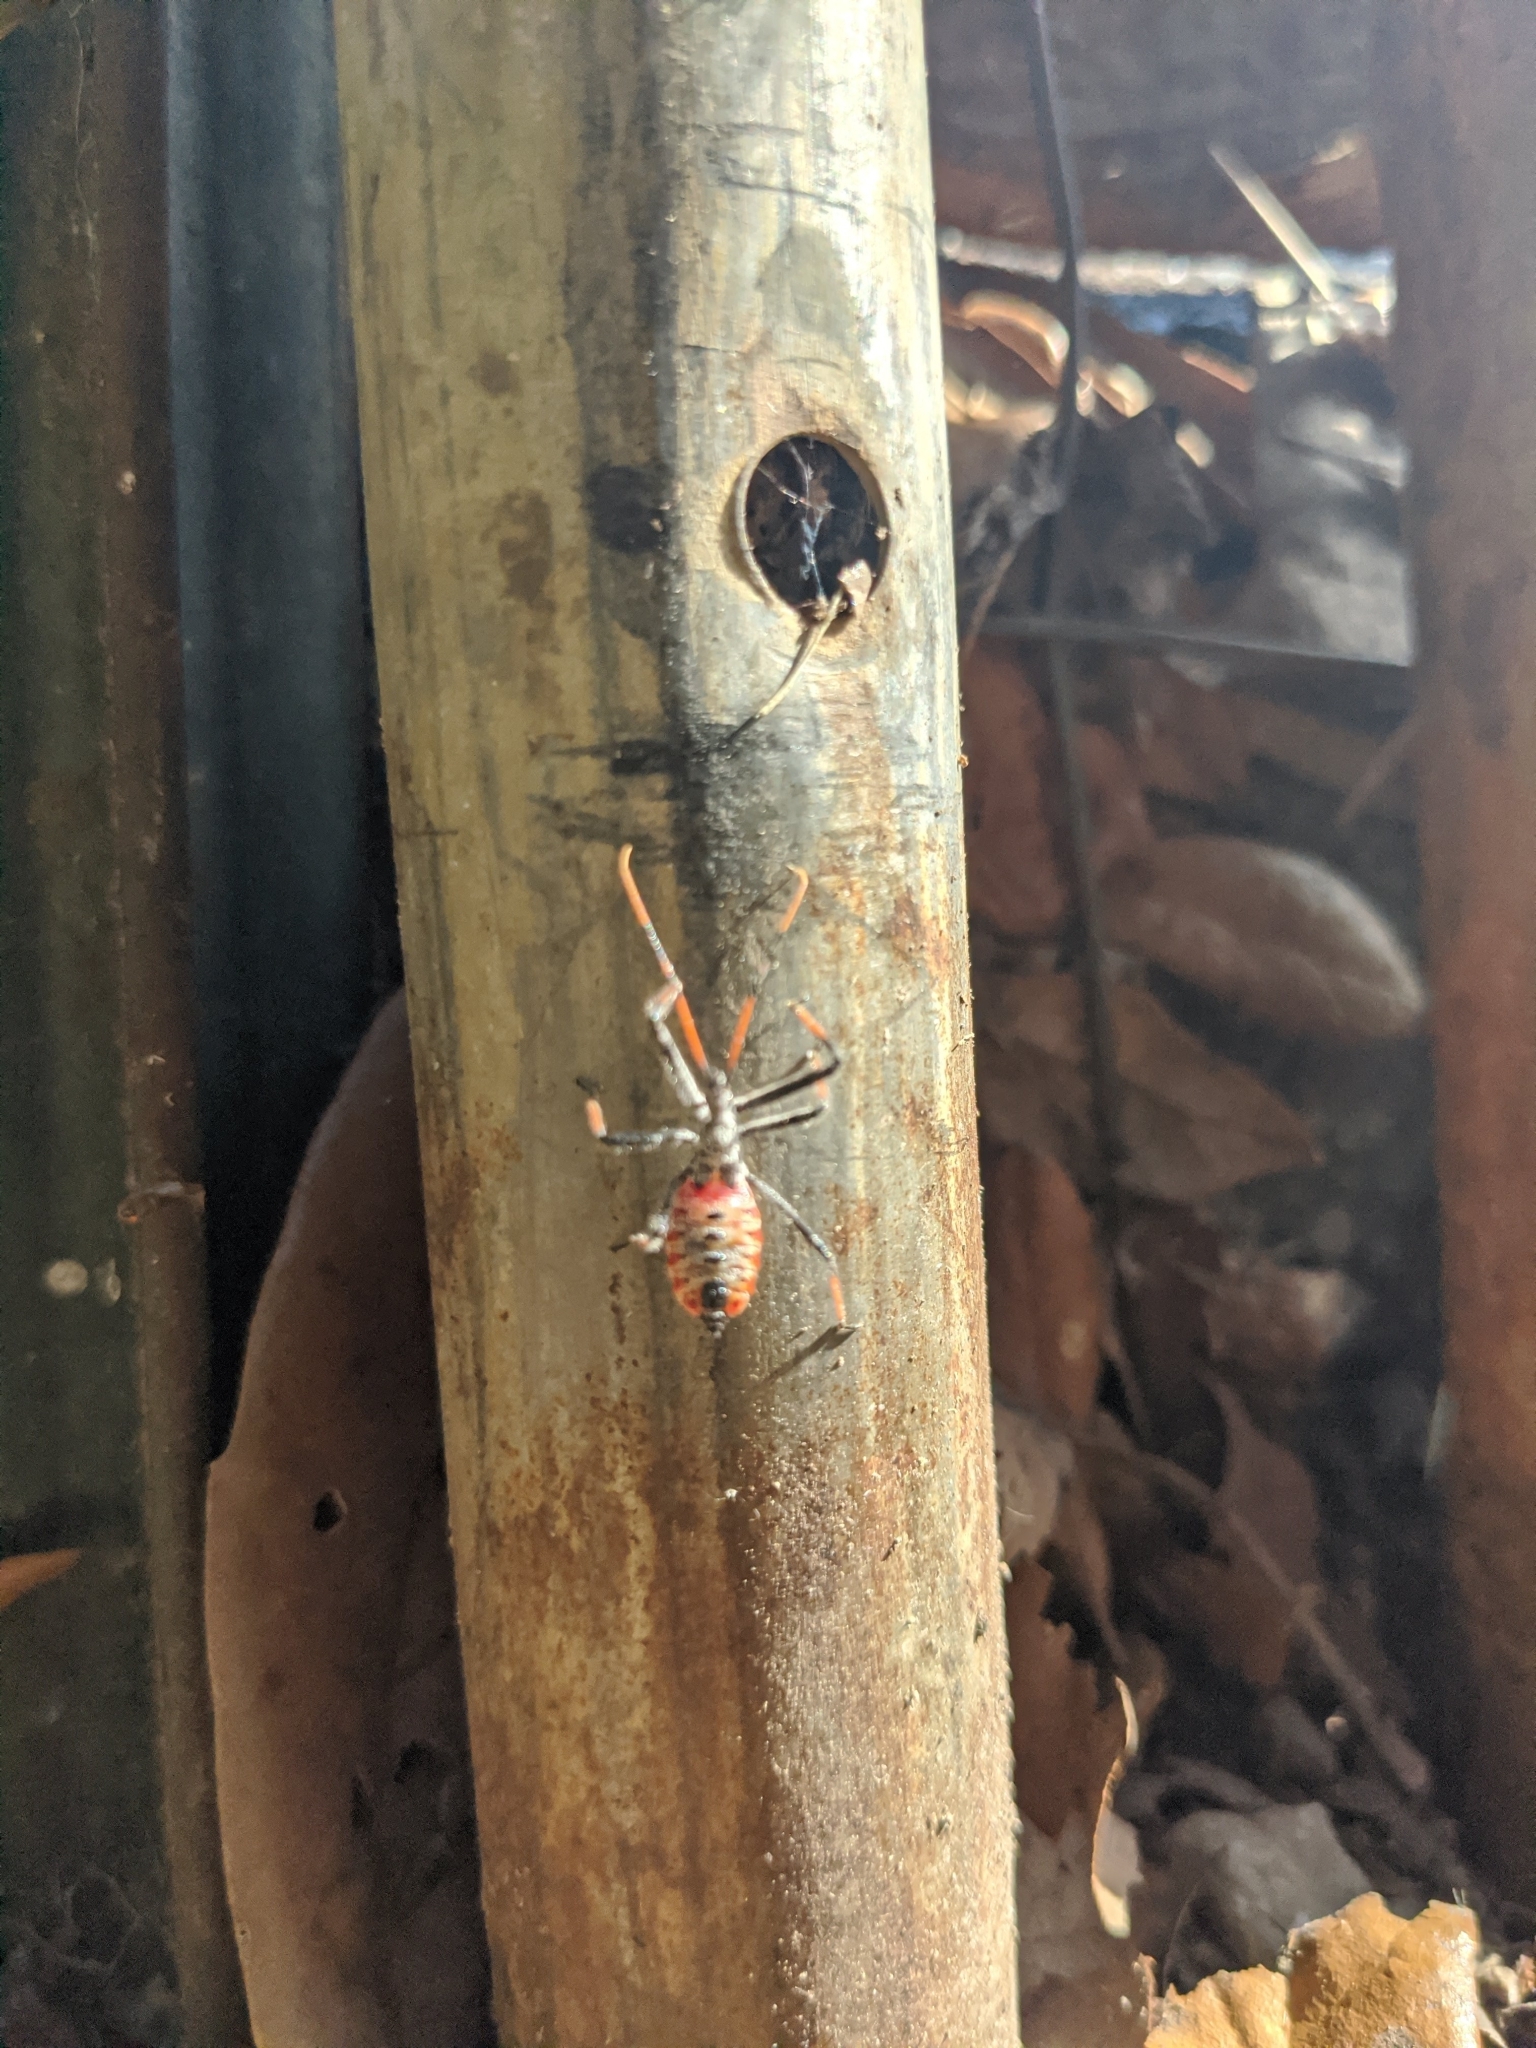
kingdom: Animalia
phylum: Arthropoda
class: Insecta
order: Hemiptera
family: Reduviidae
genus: Arilus
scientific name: Arilus cristatus
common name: North american wheel bug
